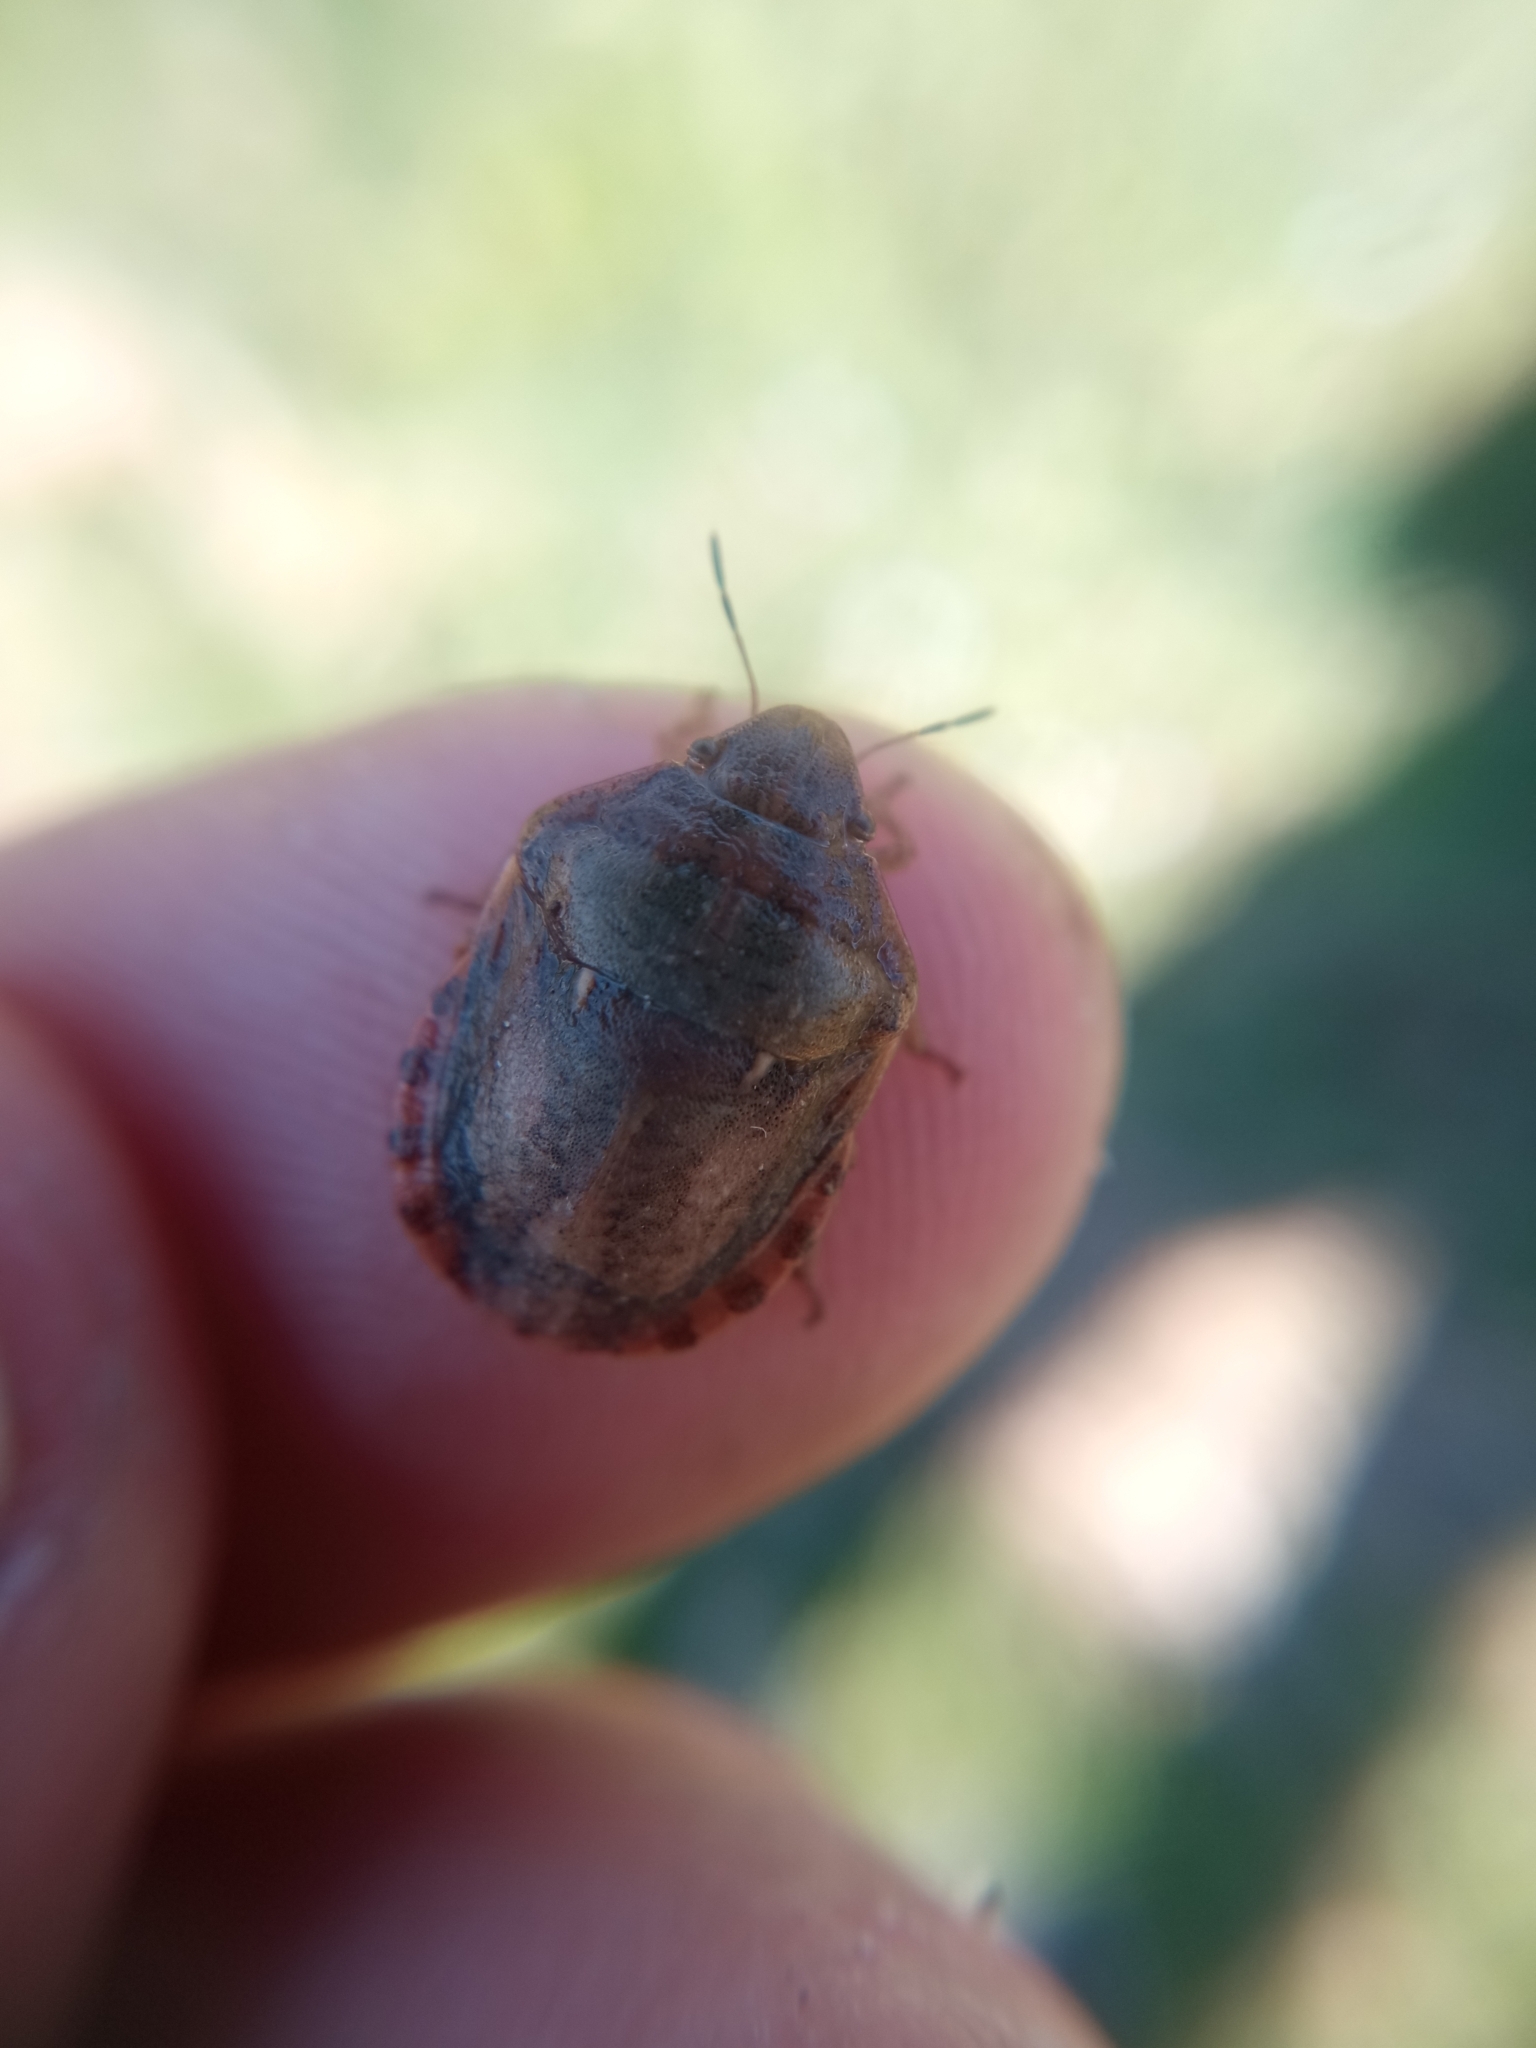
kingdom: Animalia
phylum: Arthropoda
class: Insecta
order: Hemiptera
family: Scutelleridae
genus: Eurygaster
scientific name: Eurygaster maura
